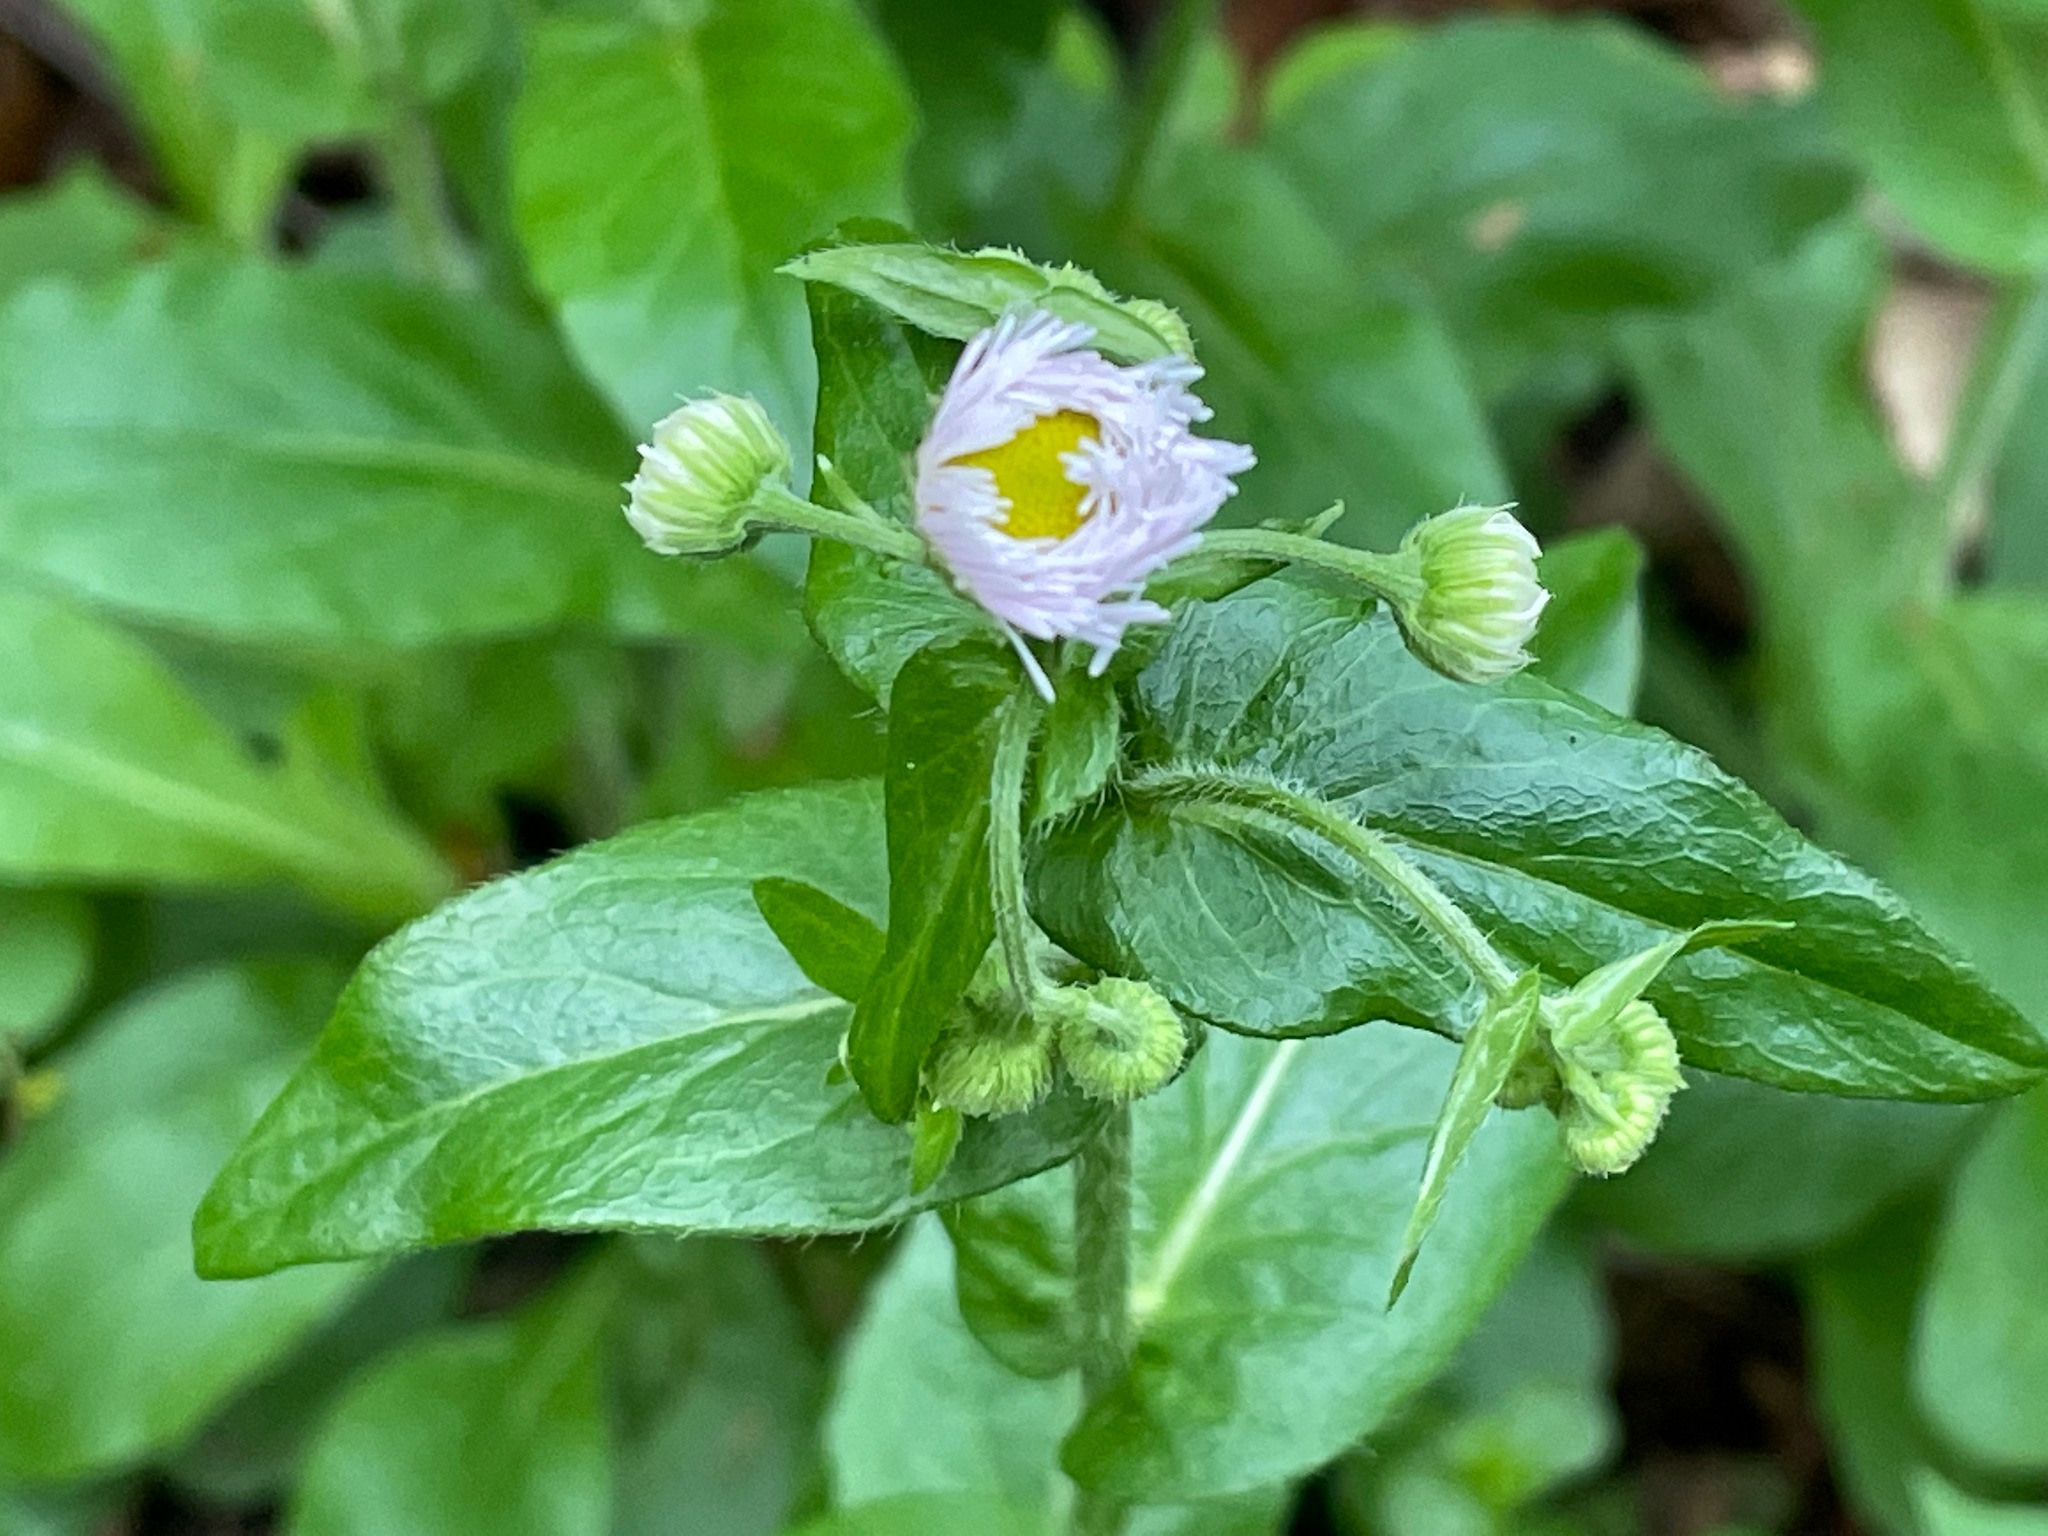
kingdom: Plantae
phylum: Tracheophyta
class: Magnoliopsida
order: Asterales
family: Asteraceae
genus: Erigeron
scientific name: Erigeron philadelphicus
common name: Robin's-plantain
